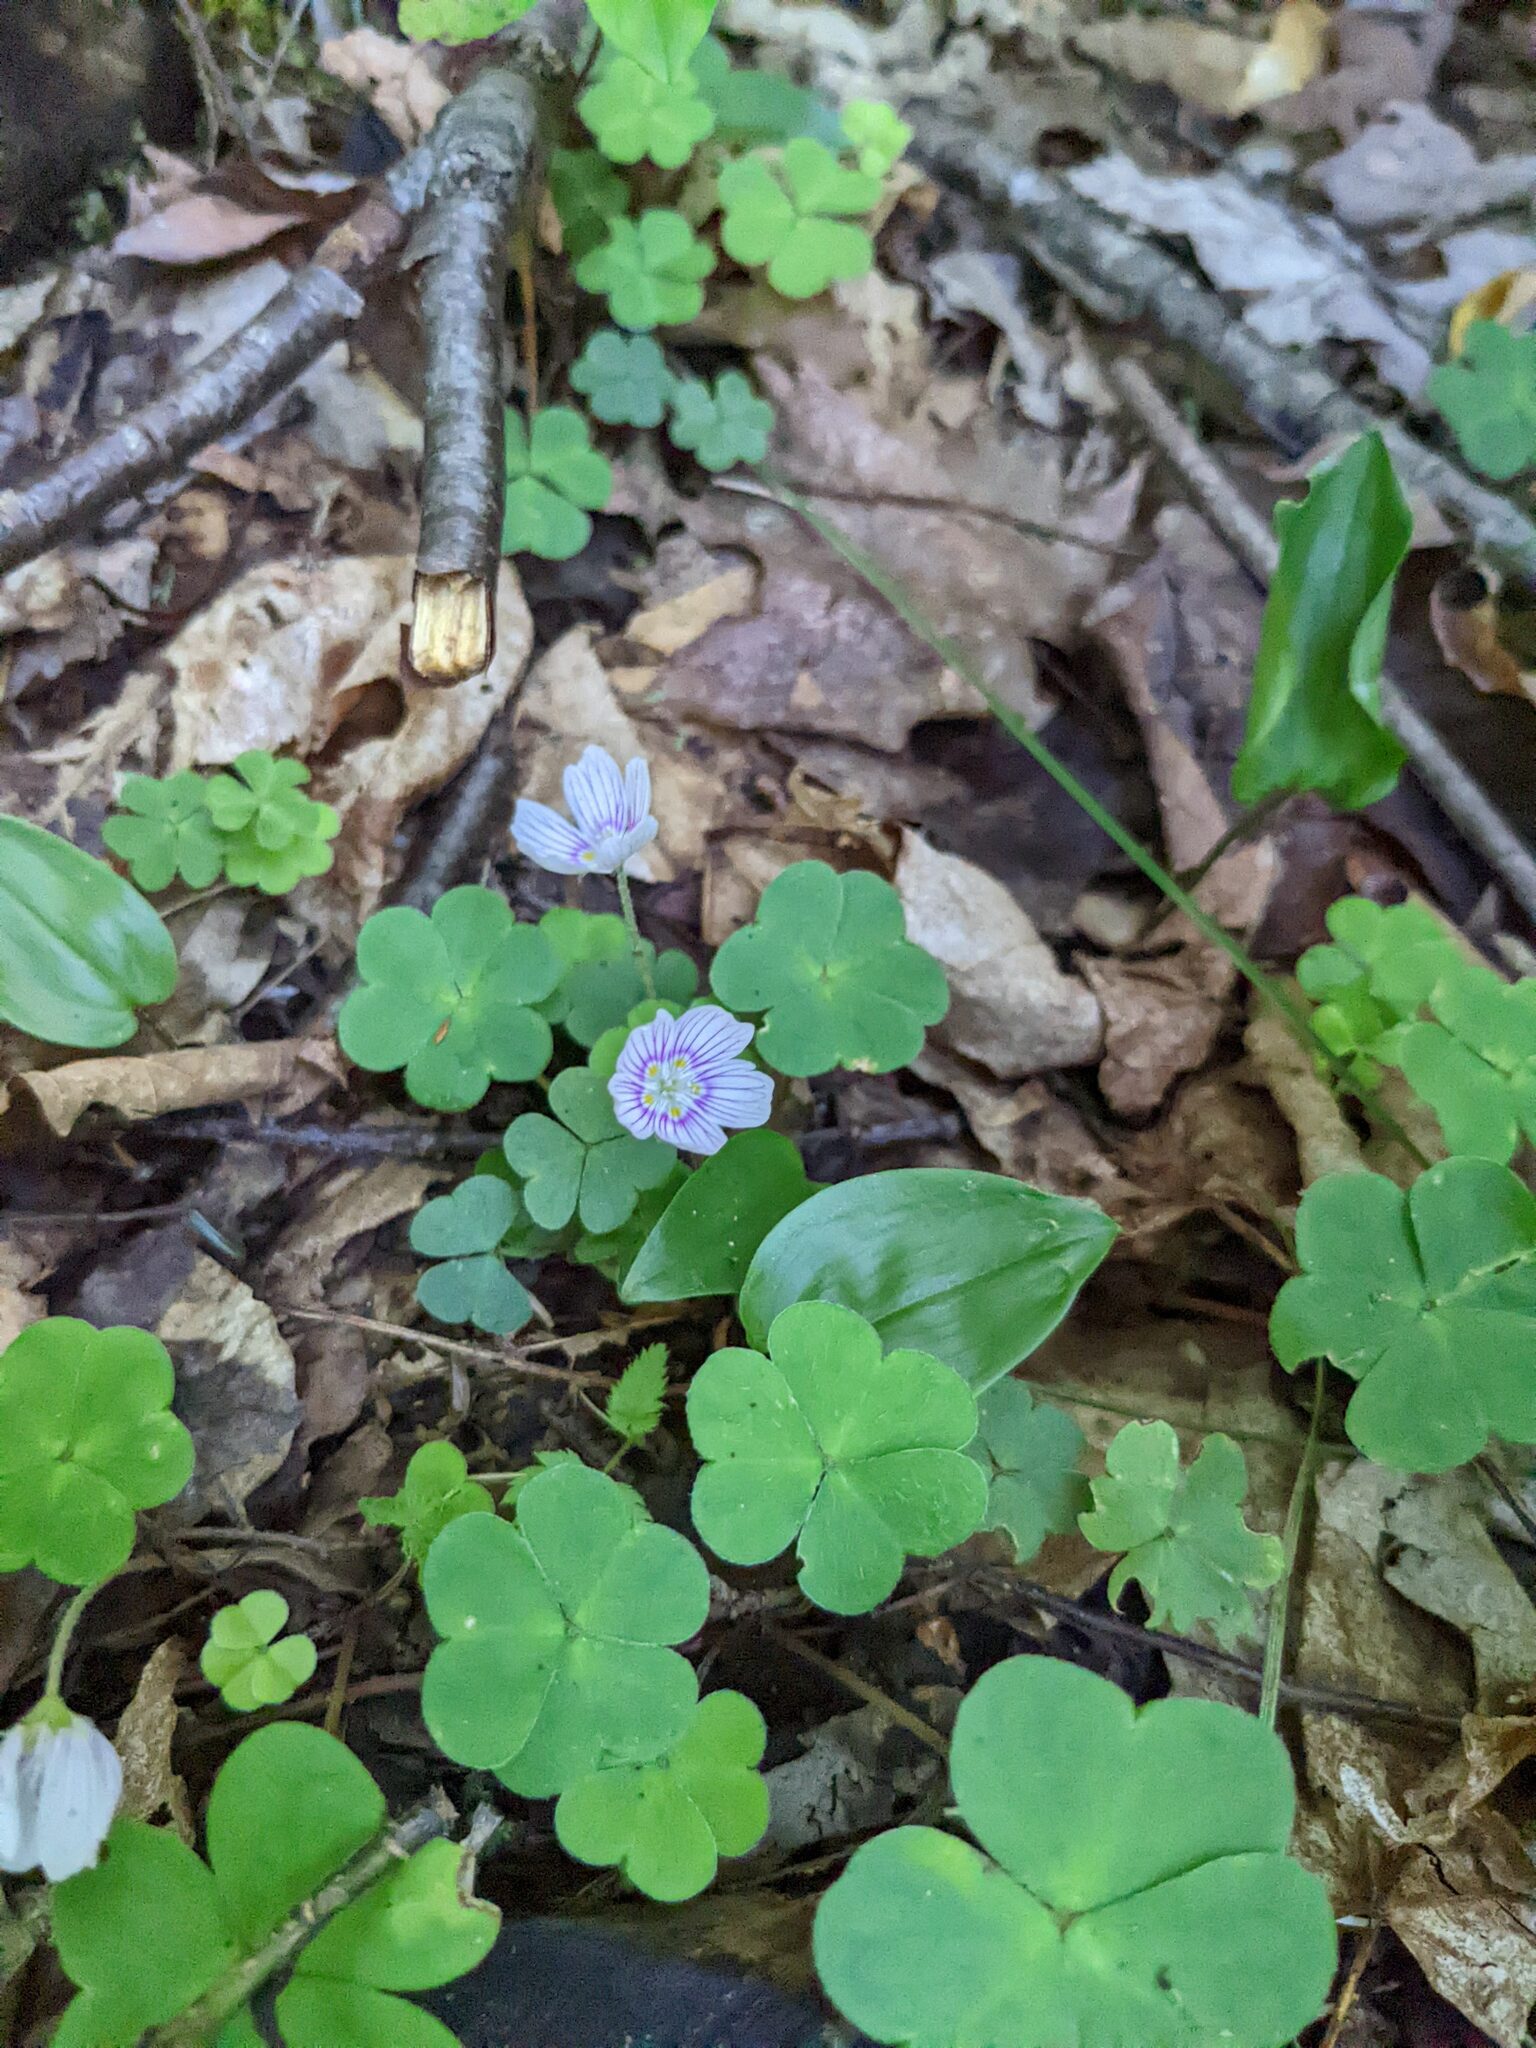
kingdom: Plantae
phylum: Tracheophyta
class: Magnoliopsida
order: Oxalidales
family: Oxalidaceae
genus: Oxalis
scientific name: Oxalis montana
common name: American wood-sorrel
